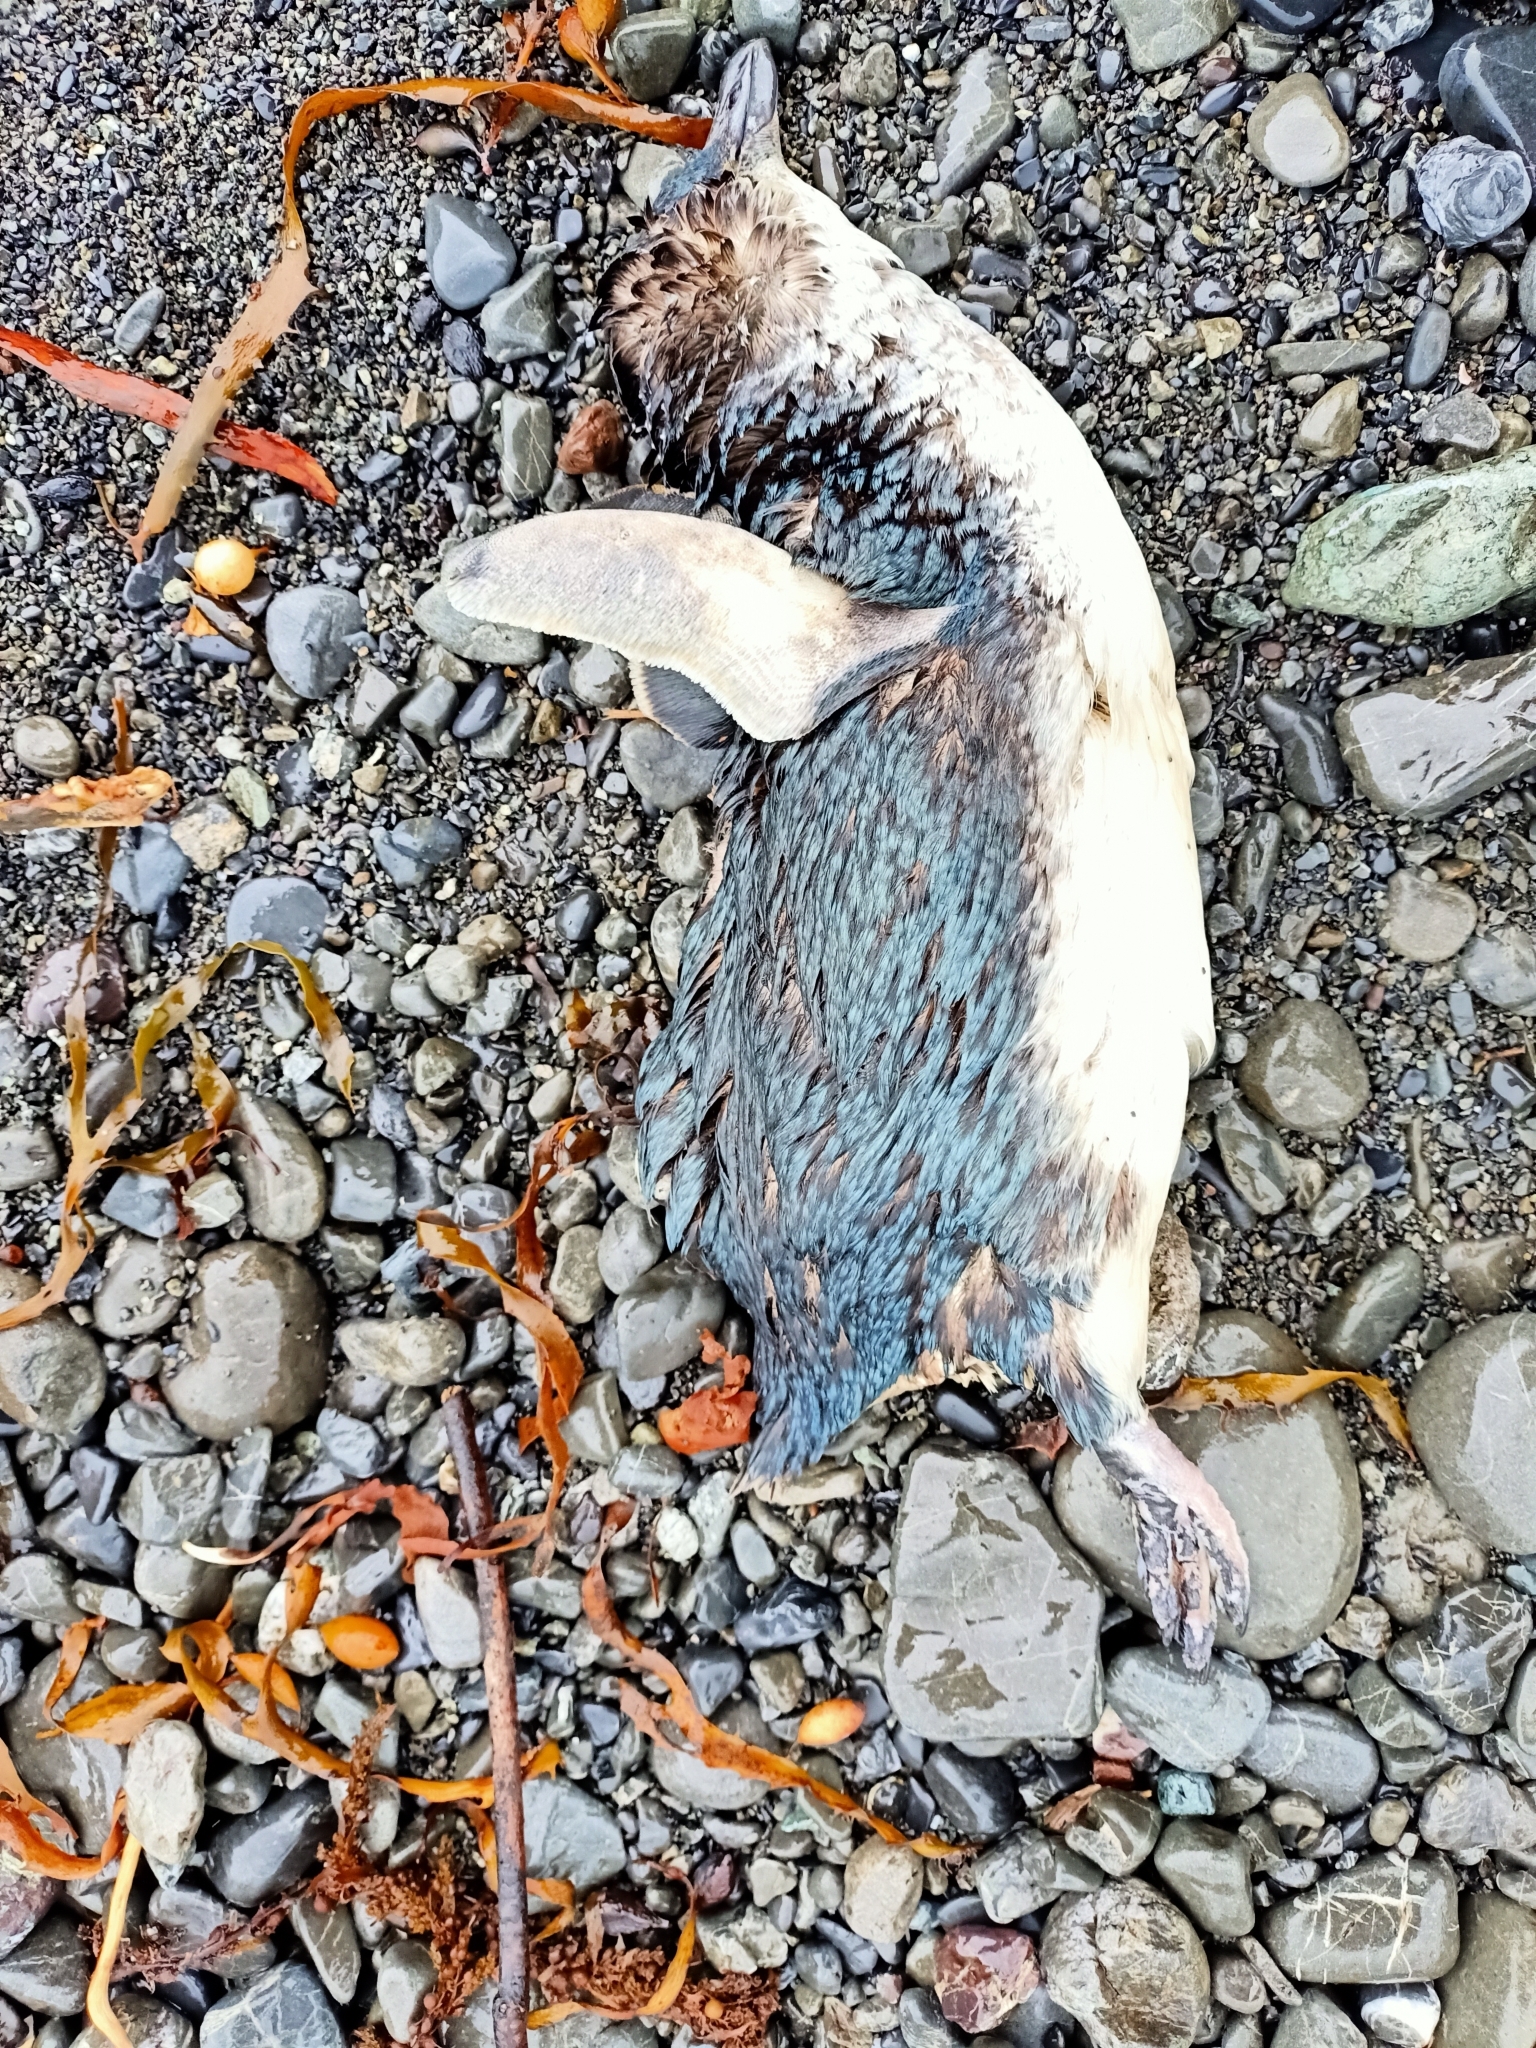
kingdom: Animalia
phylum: Chordata
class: Aves
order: Sphenisciformes
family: Spheniscidae
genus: Eudyptula
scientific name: Eudyptula minor
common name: Little penguin
